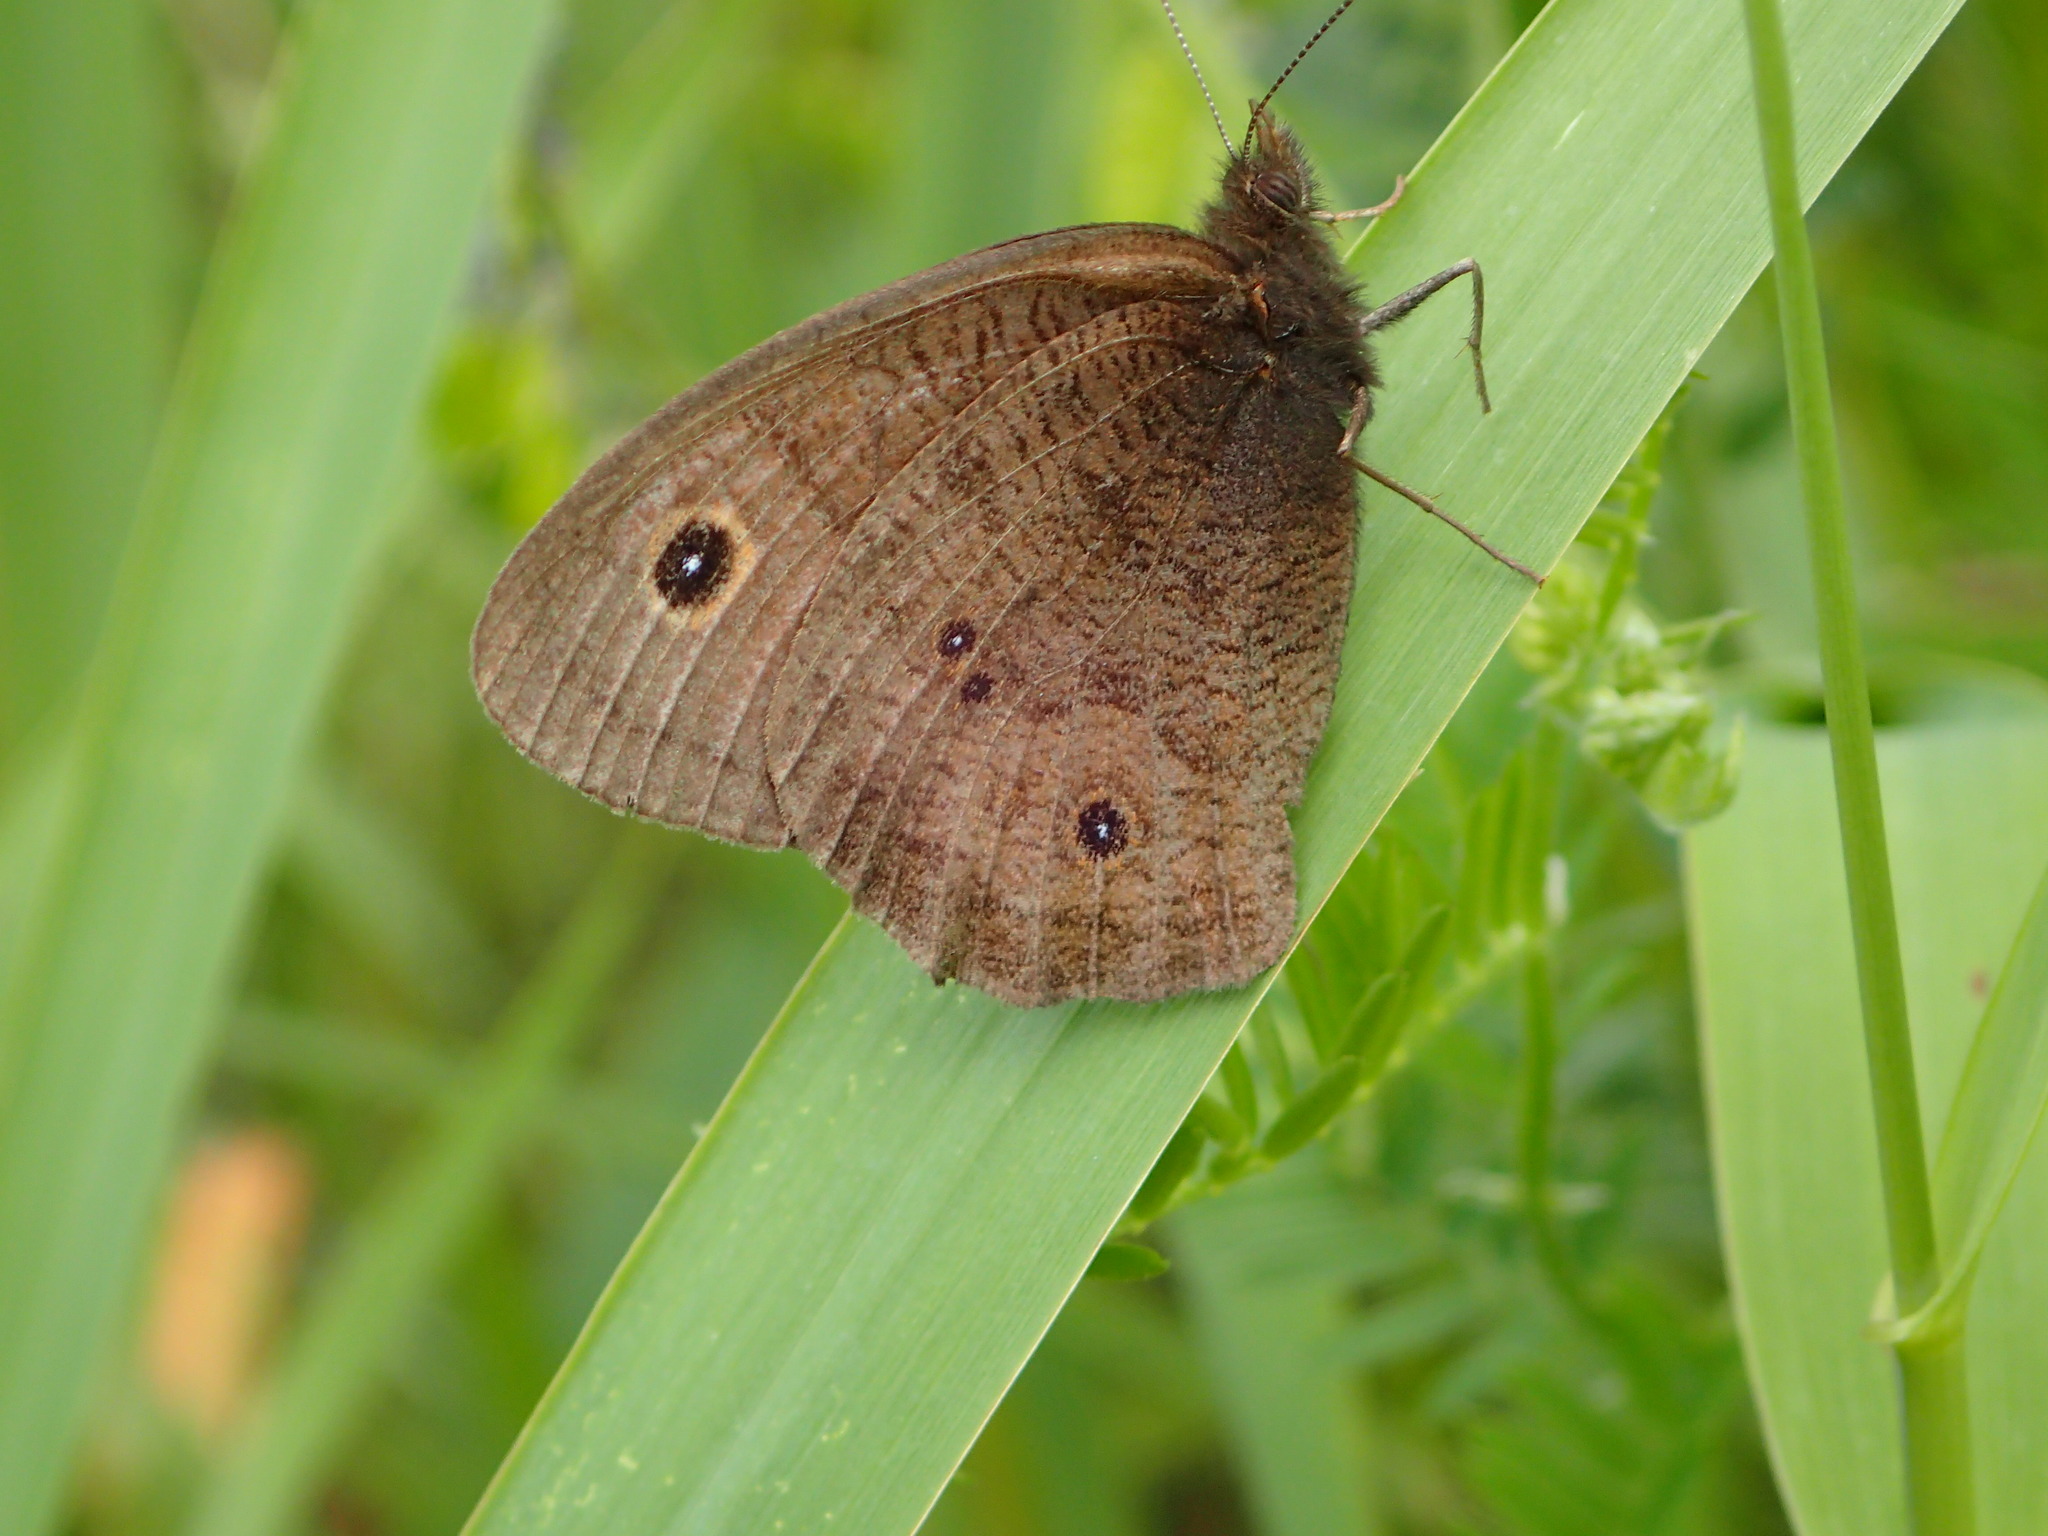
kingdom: Animalia
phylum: Arthropoda
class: Insecta
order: Lepidoptera
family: Nymphalidae
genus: Cercyonis
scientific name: Cercyonis pegala
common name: Common wood-nymph
